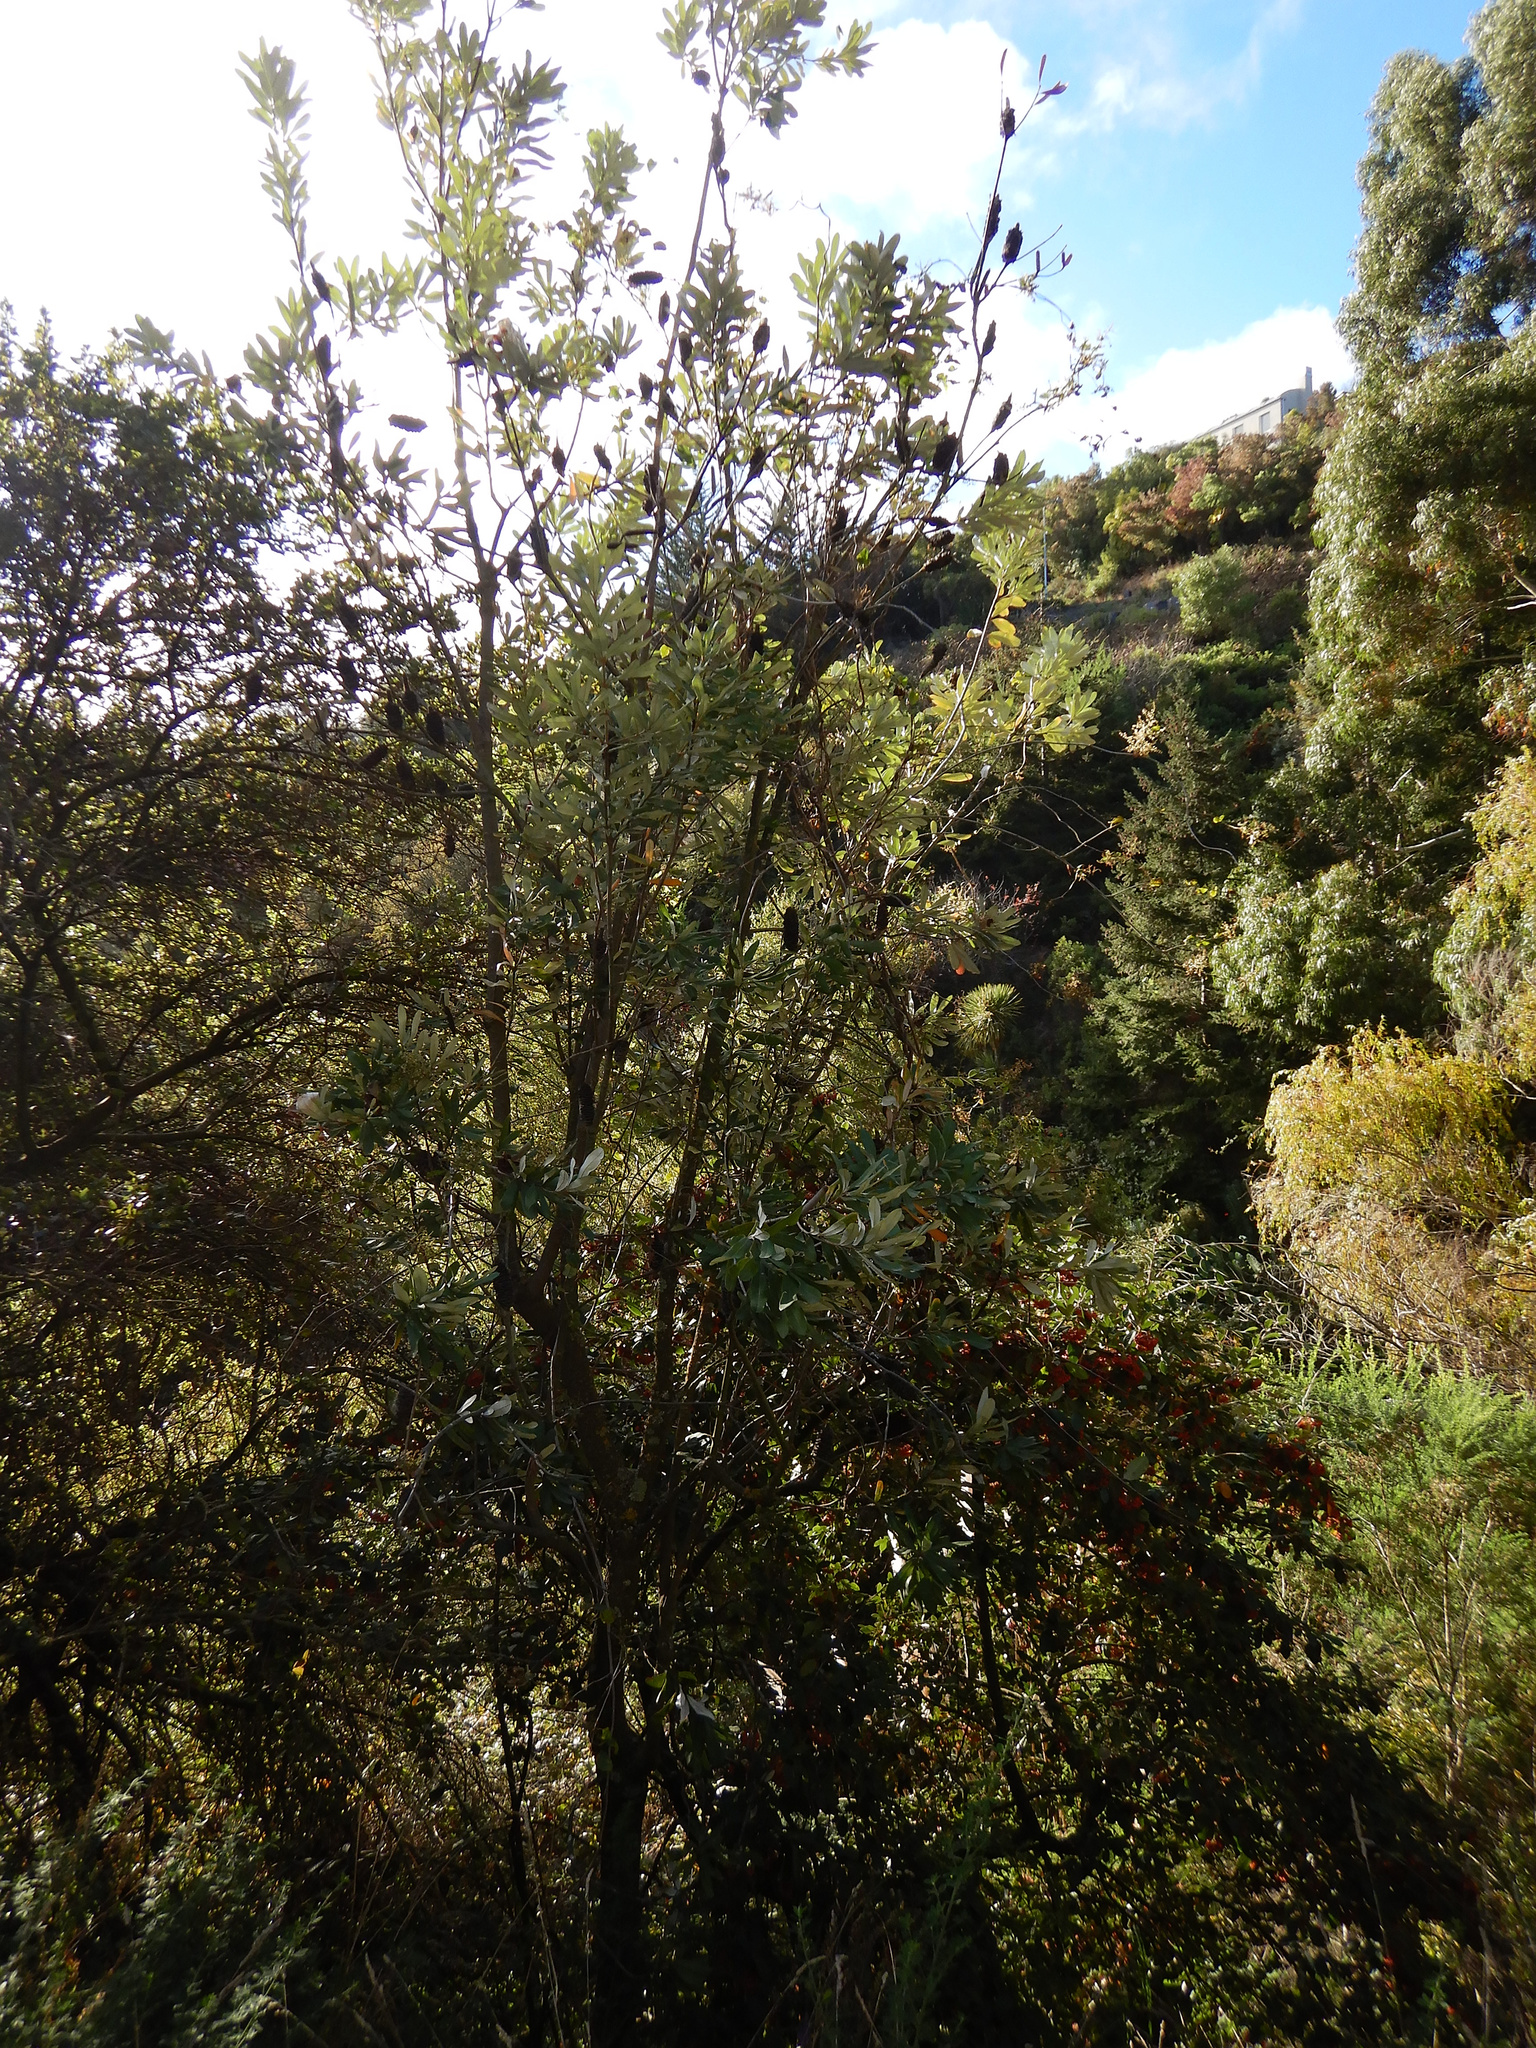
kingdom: Plantae
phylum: Tracheophyta
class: Magnoliopsida
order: Proteales
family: Proteaceae
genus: Banksia
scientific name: Banksia integrifolia
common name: White-honeysuckle
